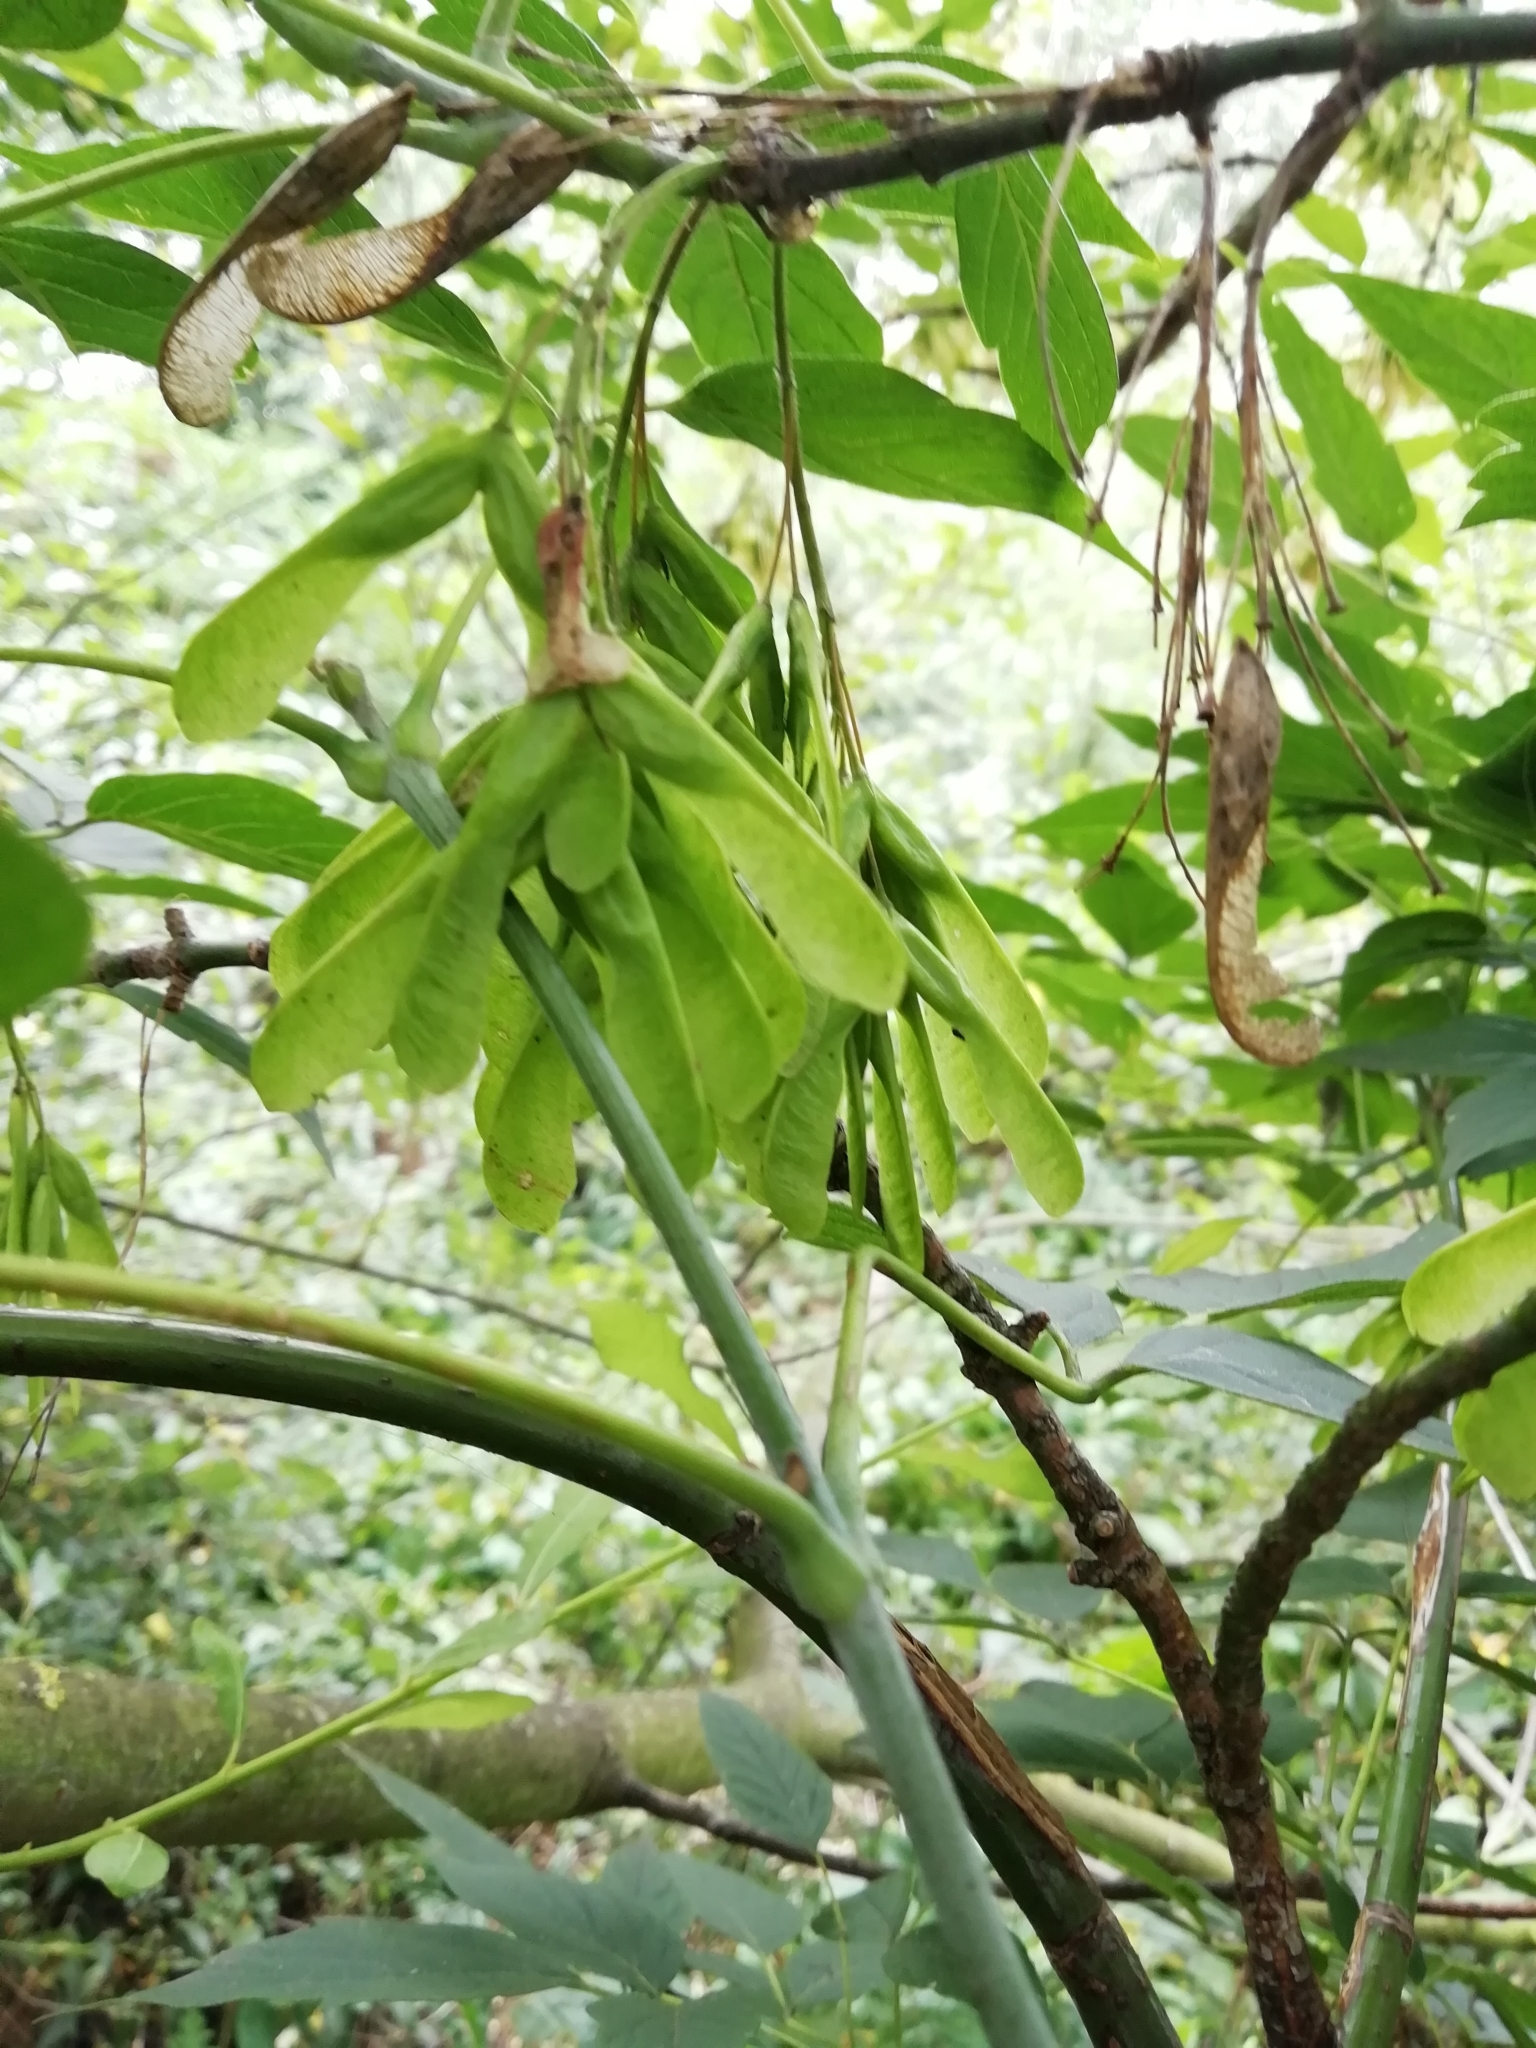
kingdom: Plantae
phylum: Tracheophyta
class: Magnoliopsida
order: Sapindales
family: Sapindaceae
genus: Acer
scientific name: Acer negundo
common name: Ashleaf maple
